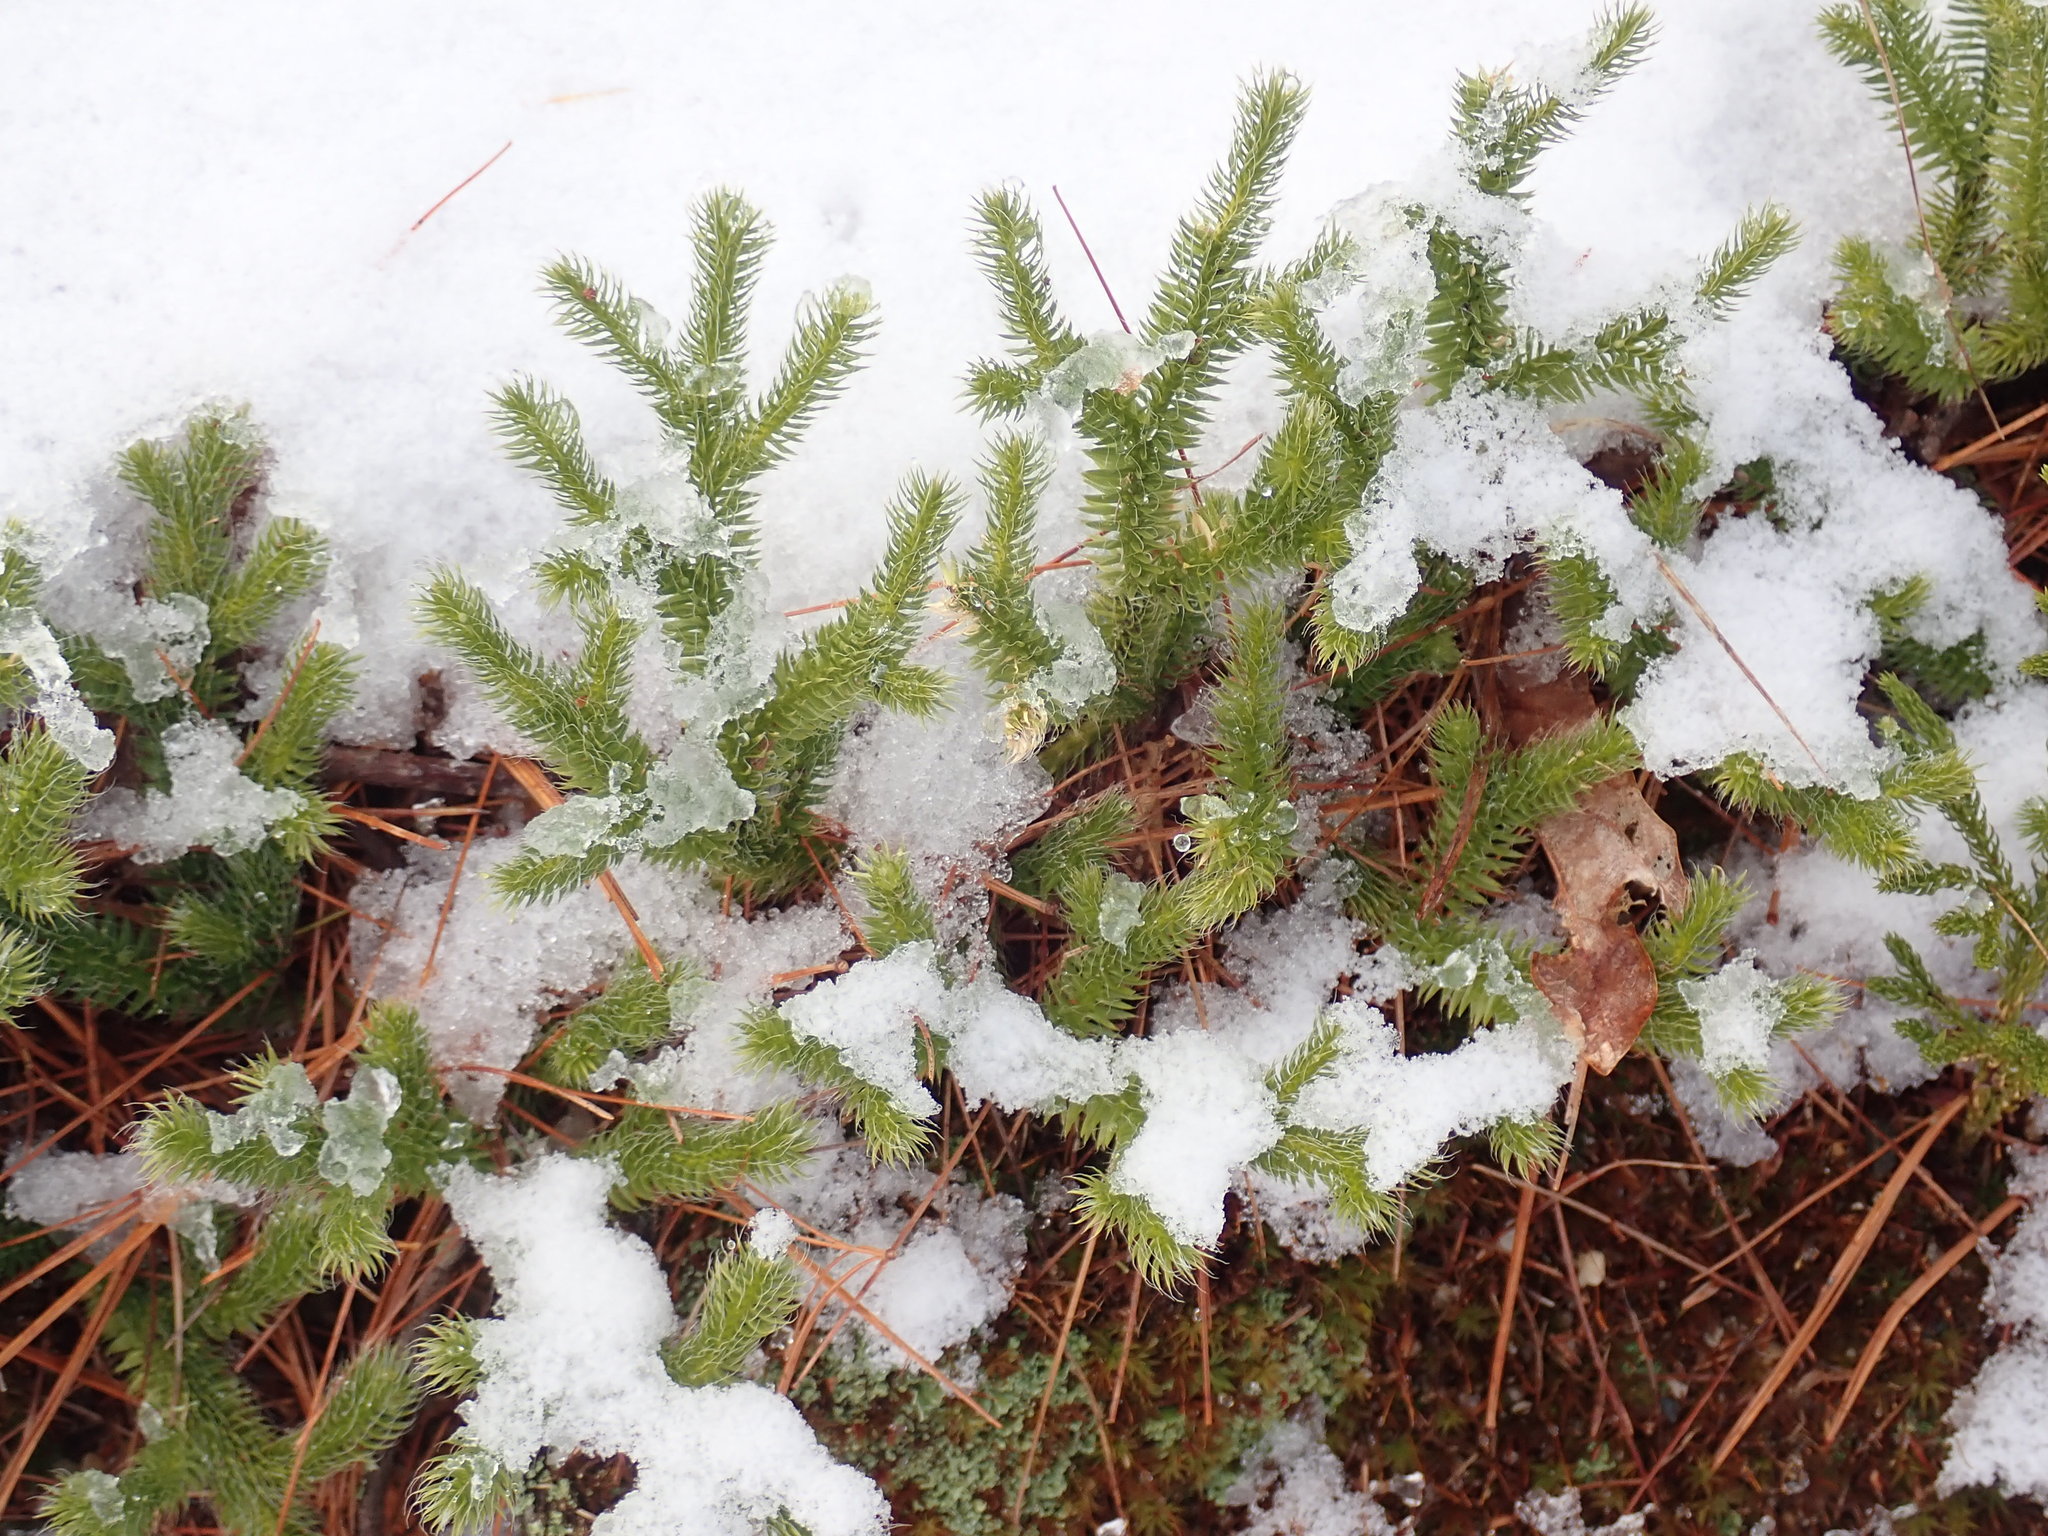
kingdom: Plantae
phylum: Tracheophyta
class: Lycopodiopsida
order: Lycopodiales
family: Lycopodiaceae
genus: Lycopodium
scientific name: Lycopodium clavatum
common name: Stag's-horn clubmoss
